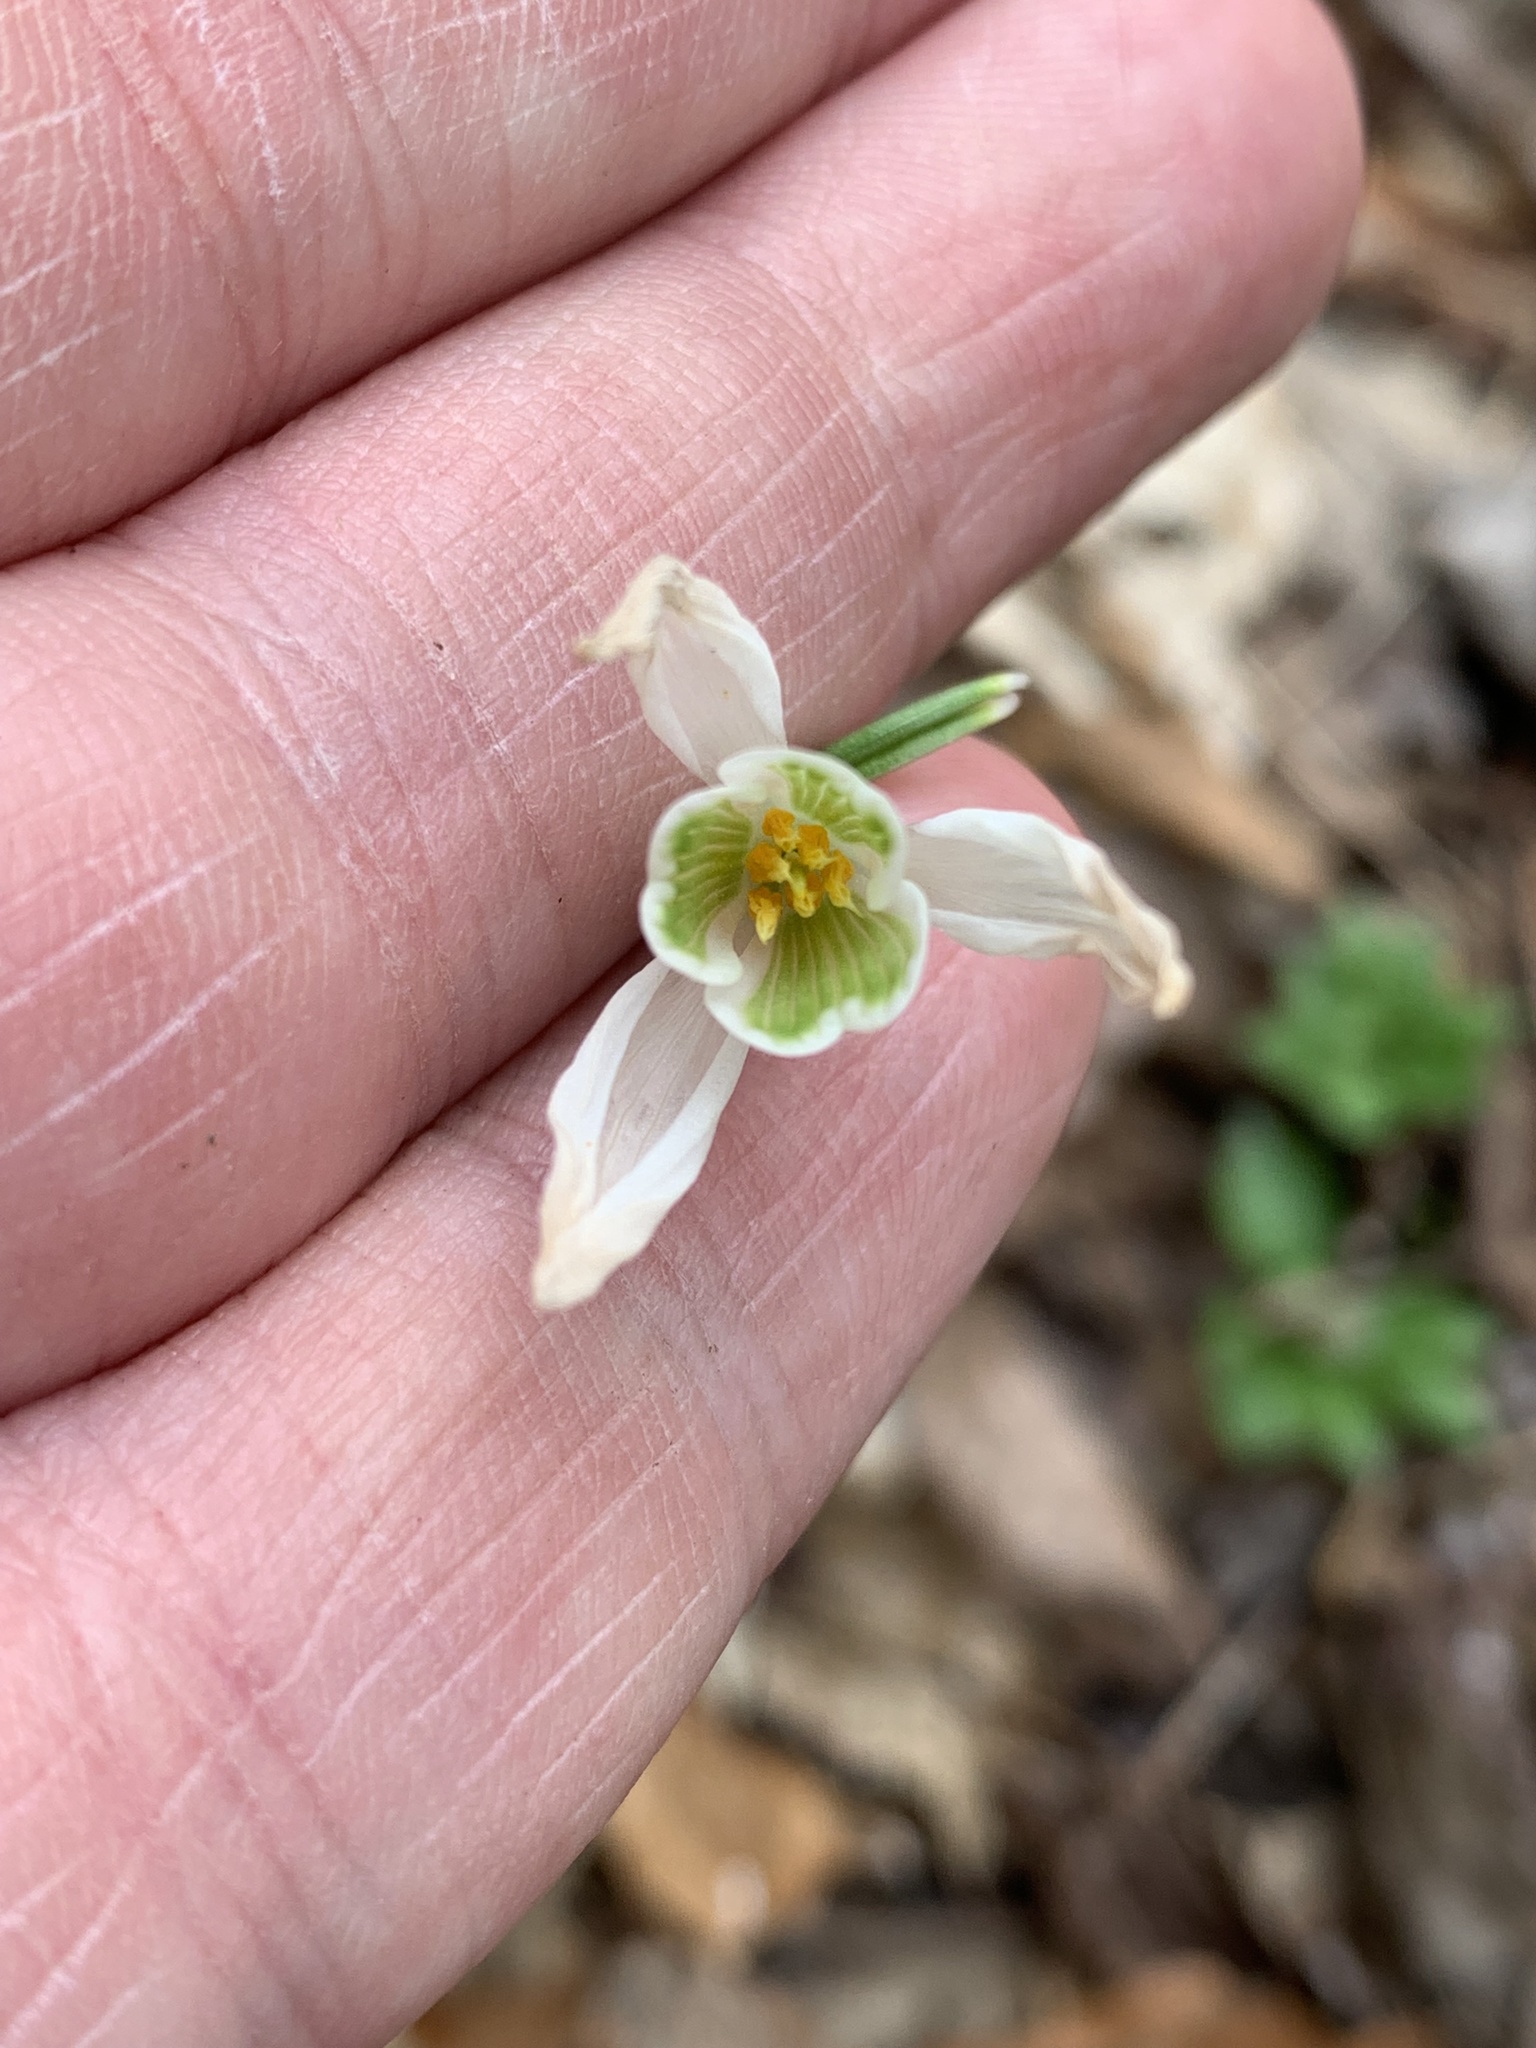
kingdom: Plantae
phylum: Tracheophyta
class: Liliopsida
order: Asparagales
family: Amaryllidaceae
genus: Galanthus
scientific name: Galanthus nivalis
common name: Snowdrop
